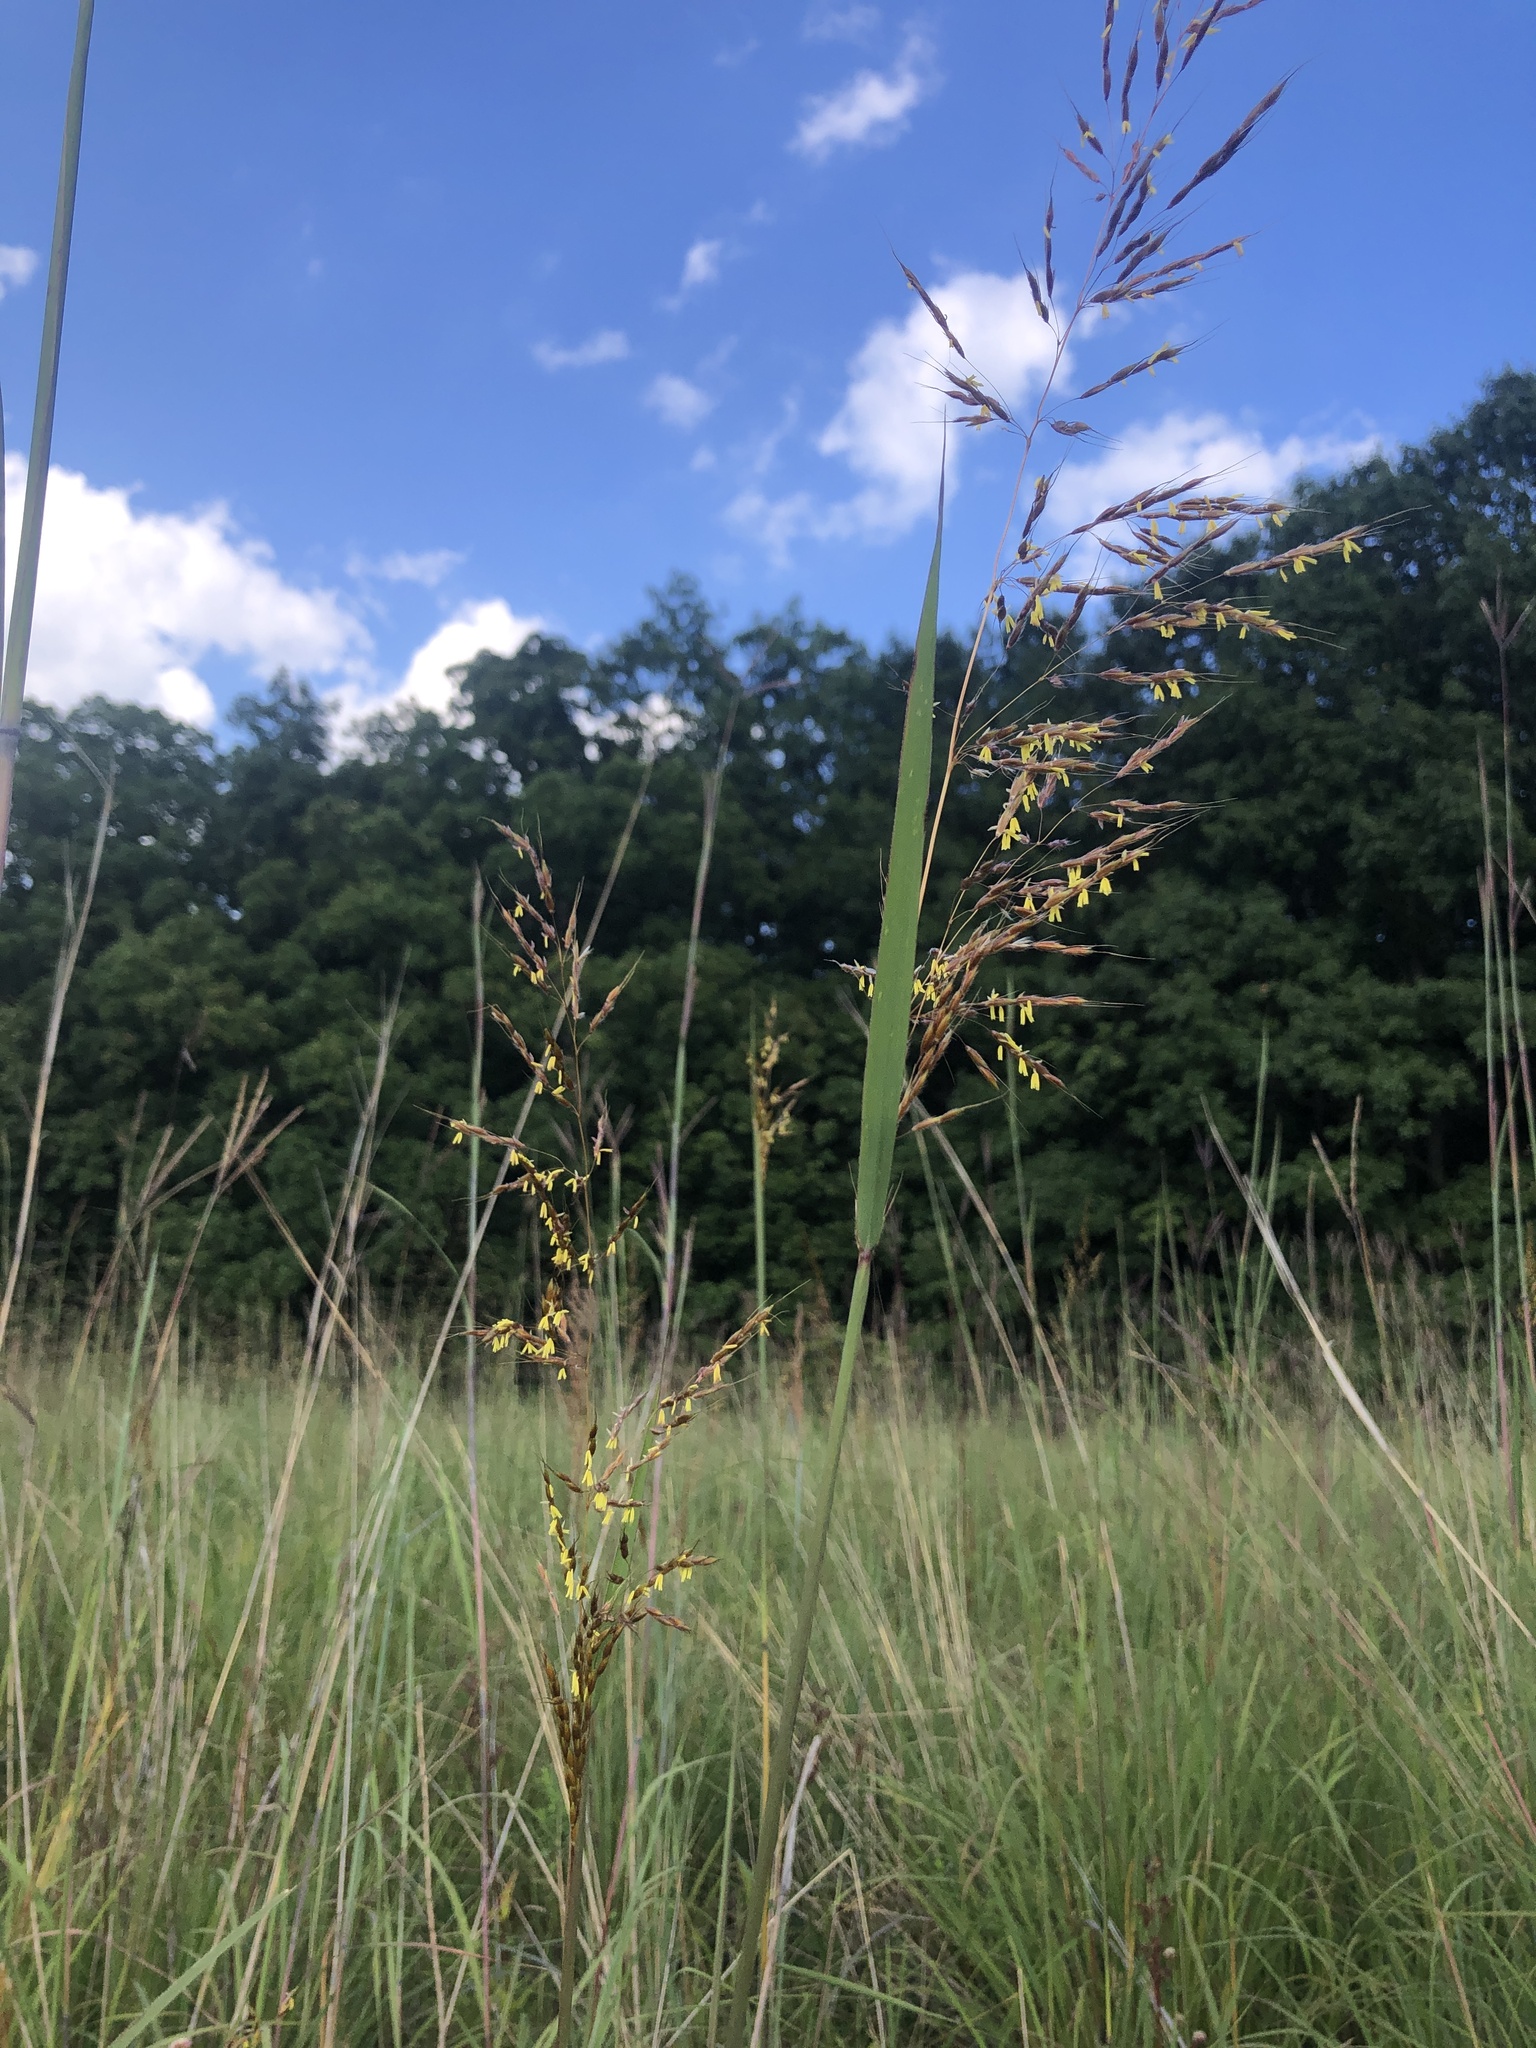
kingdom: Plantae
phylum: Tracheophyta
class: Liliopsida
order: Poales
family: Poaceae
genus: Sorghastrum
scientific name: Sorghastrum nutans
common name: Indian grass
